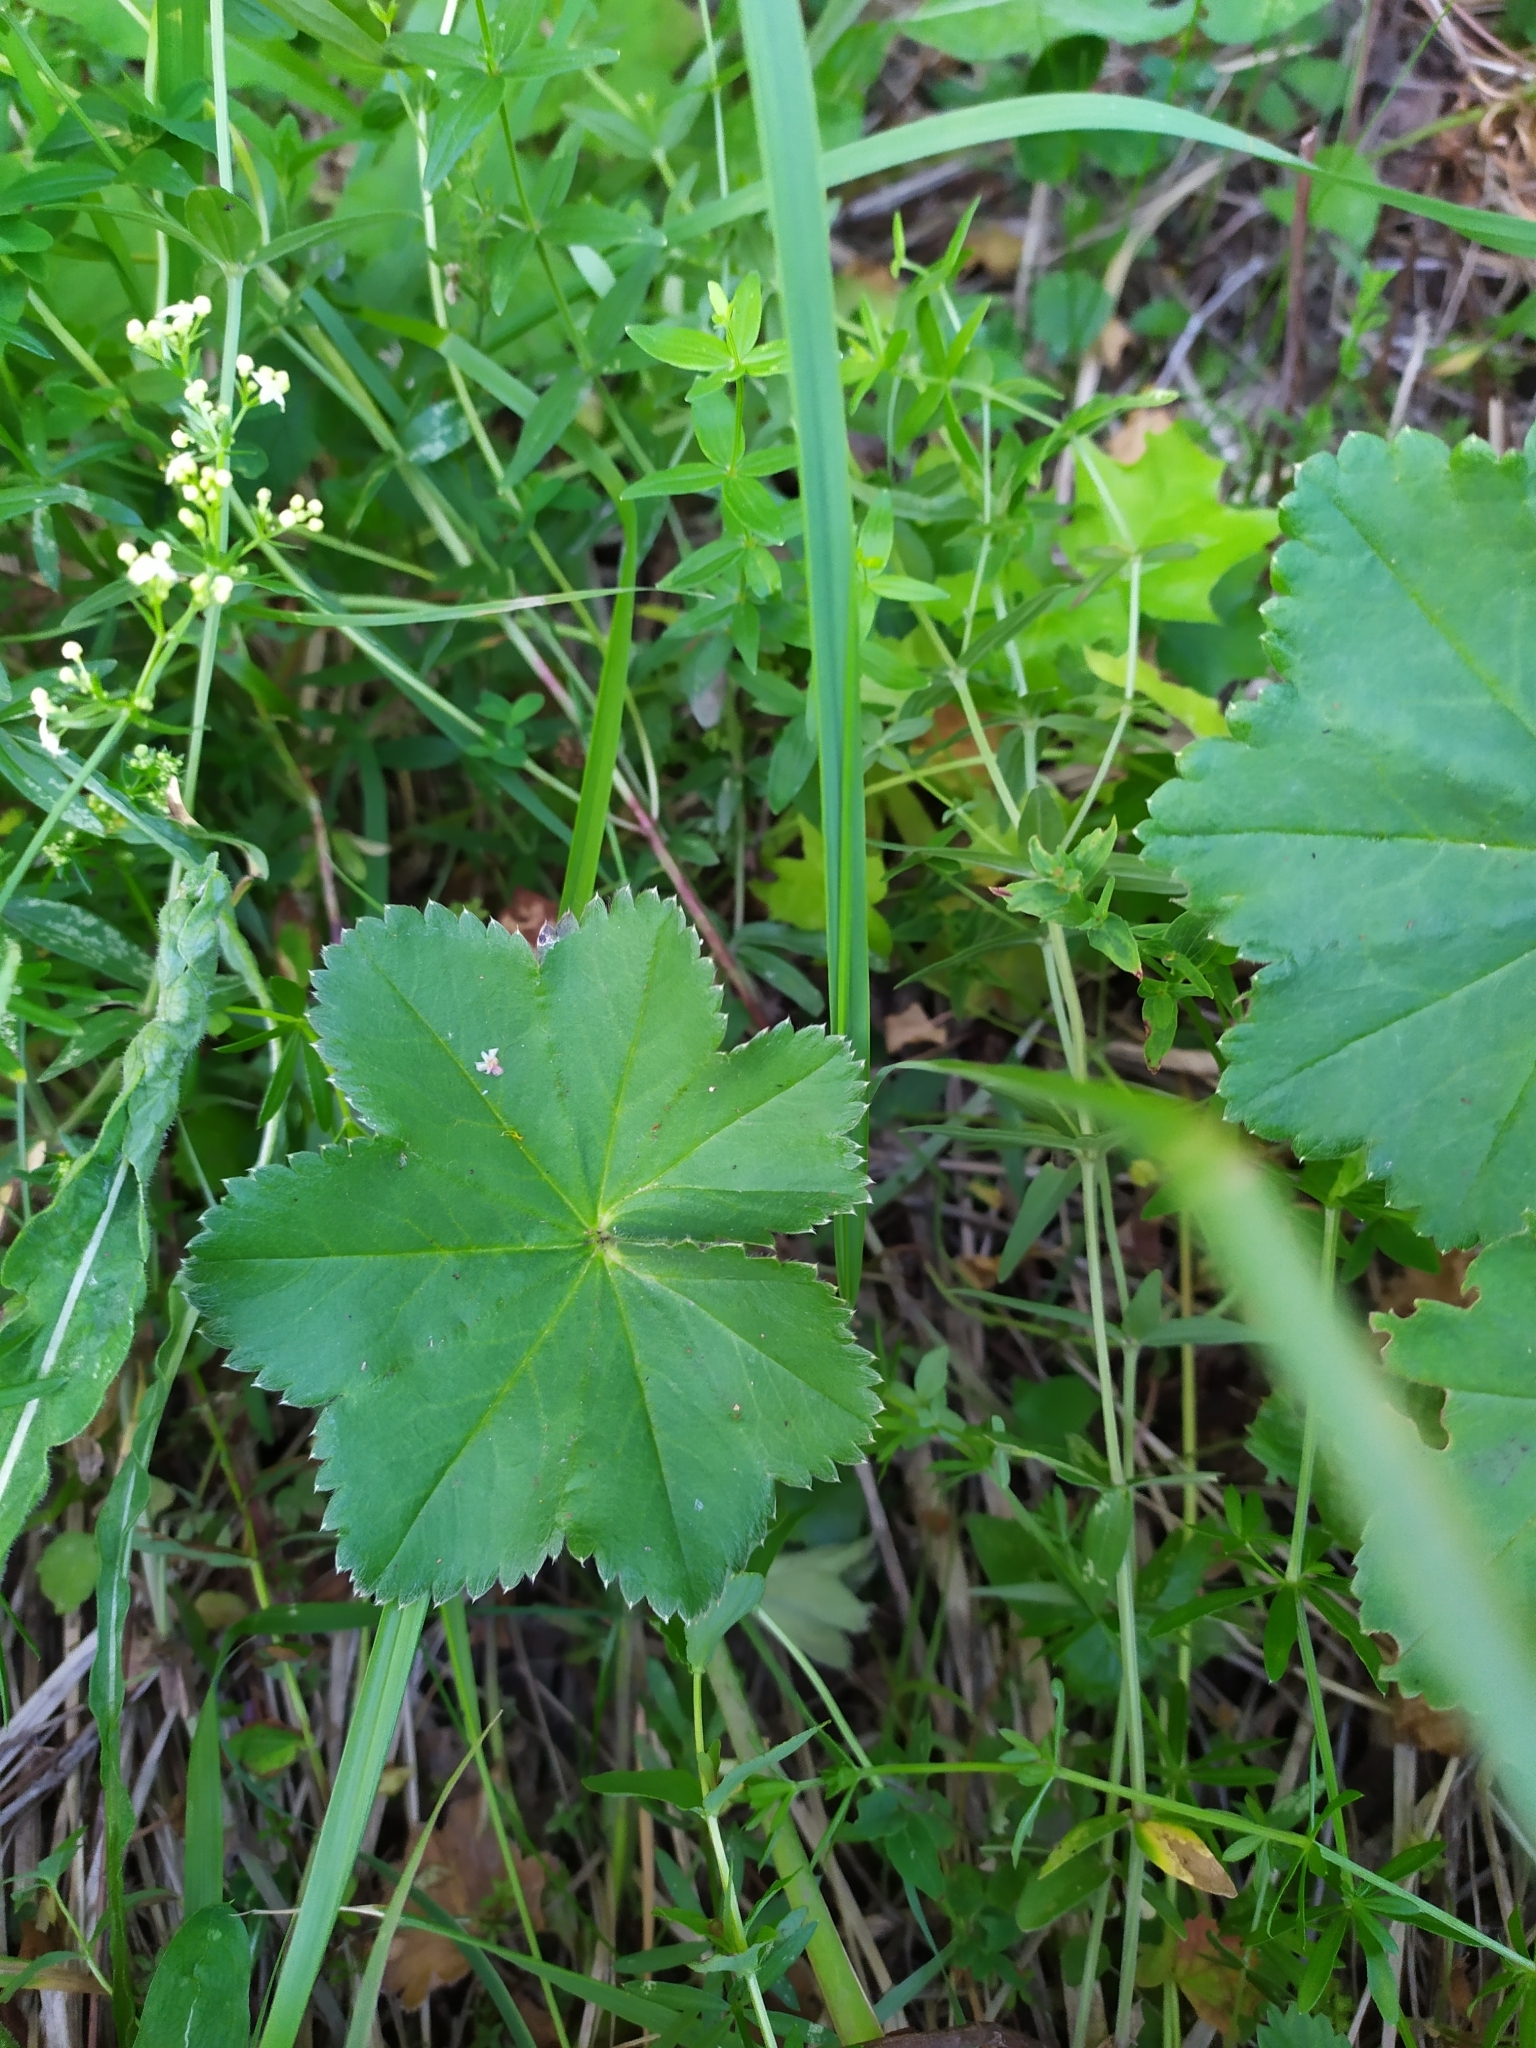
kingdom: Plantae
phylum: Tracheophyta
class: Magnoliopsida
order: Rosales
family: Rosaceae
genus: Alchemilla
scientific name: Alchemilla
